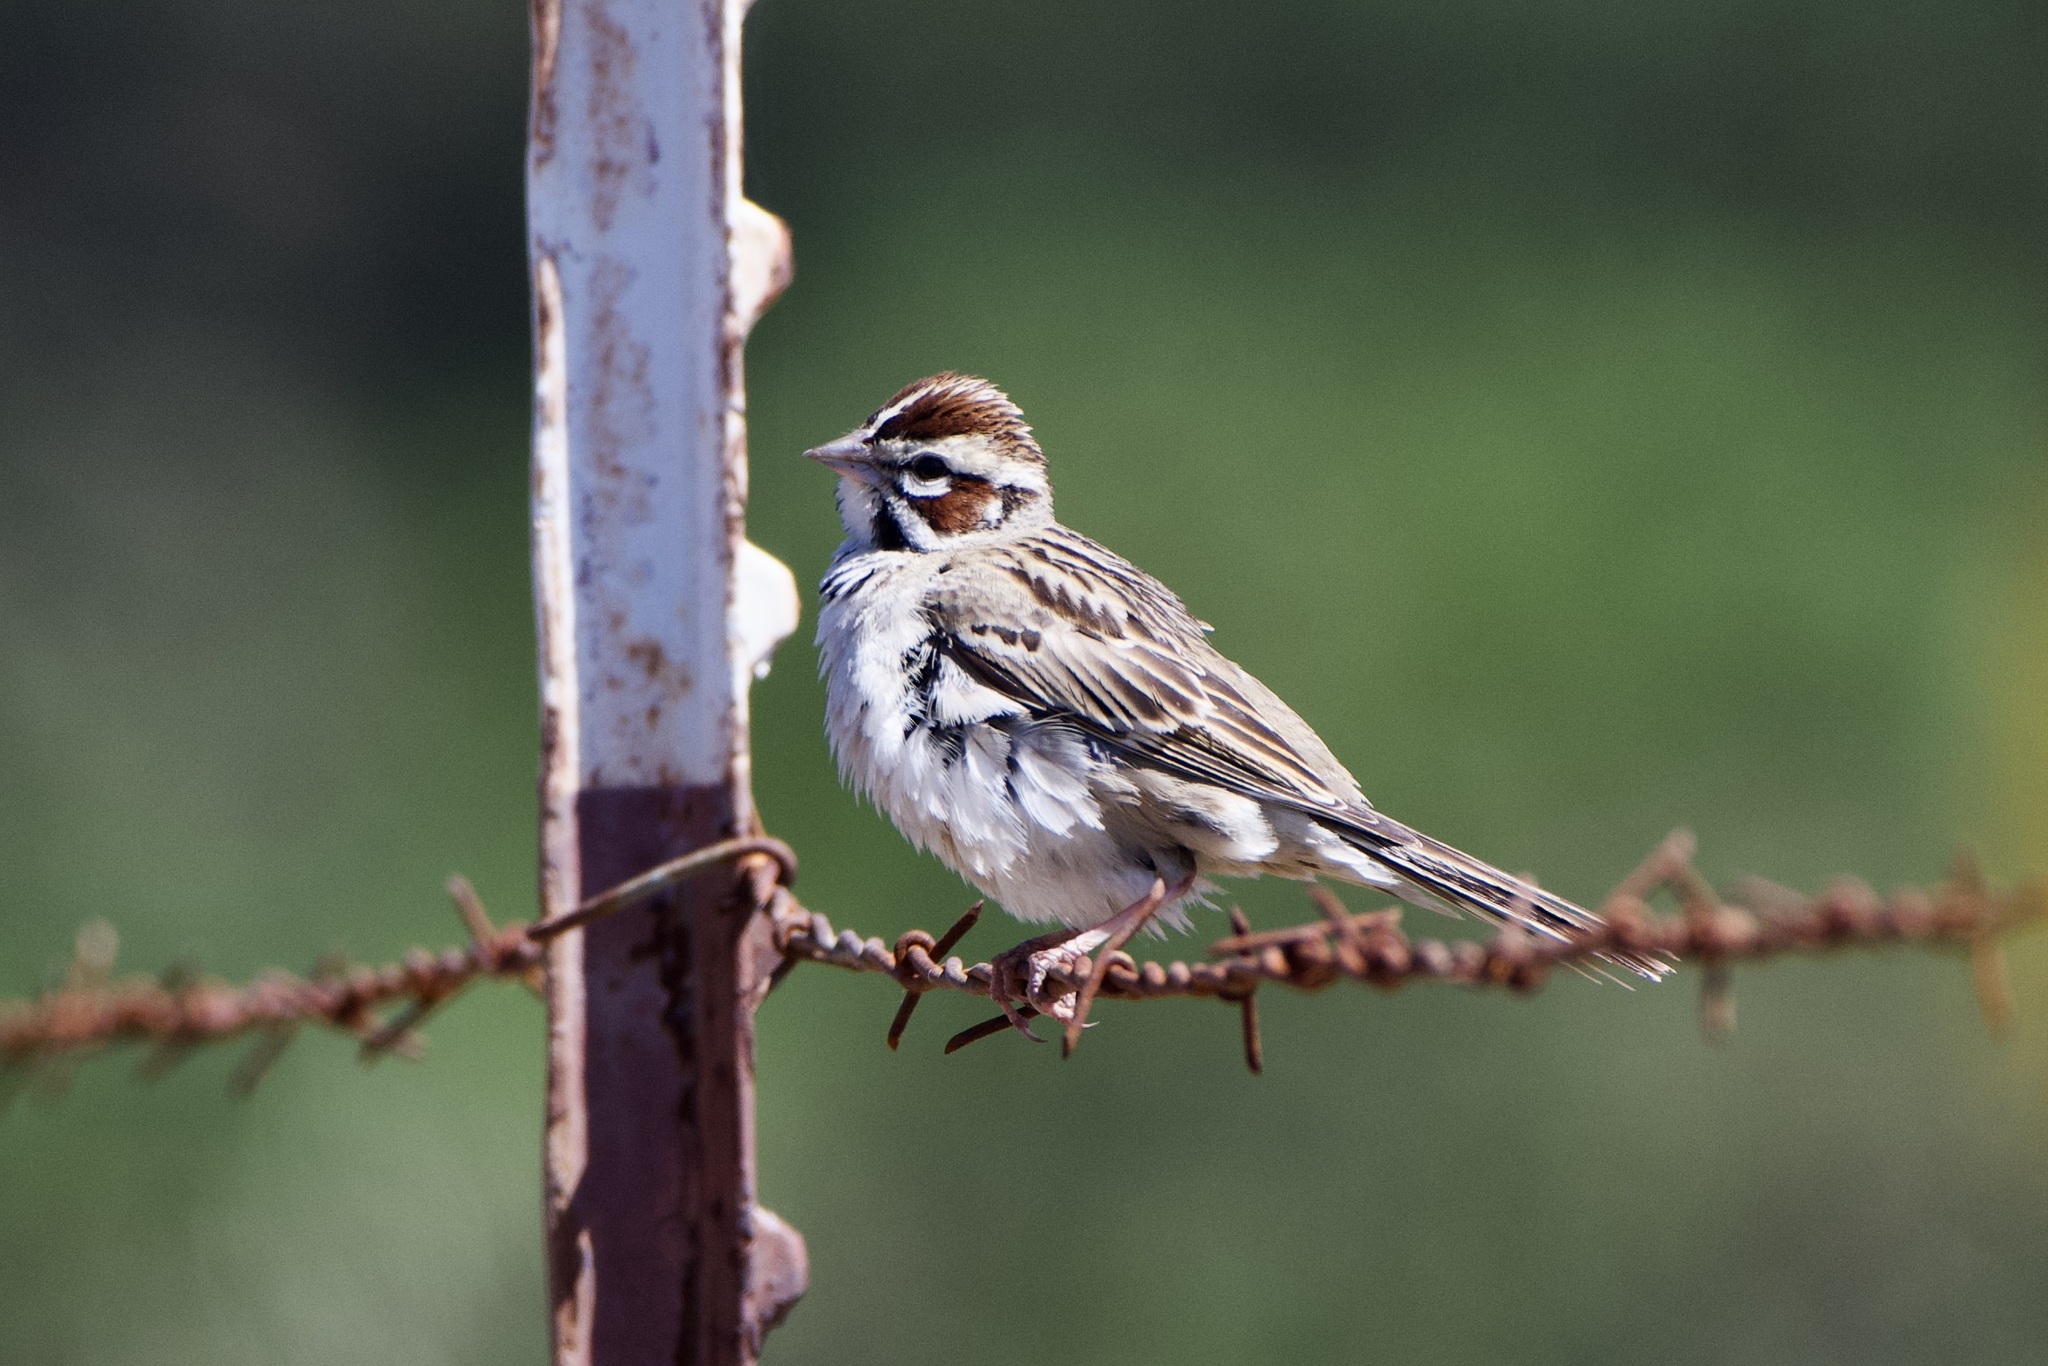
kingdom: Animalia
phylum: Chordata
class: Aves
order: Passeriformes
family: Passerellidae
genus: Chondestes
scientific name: Chondestes grammacus
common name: Lark sparrow
